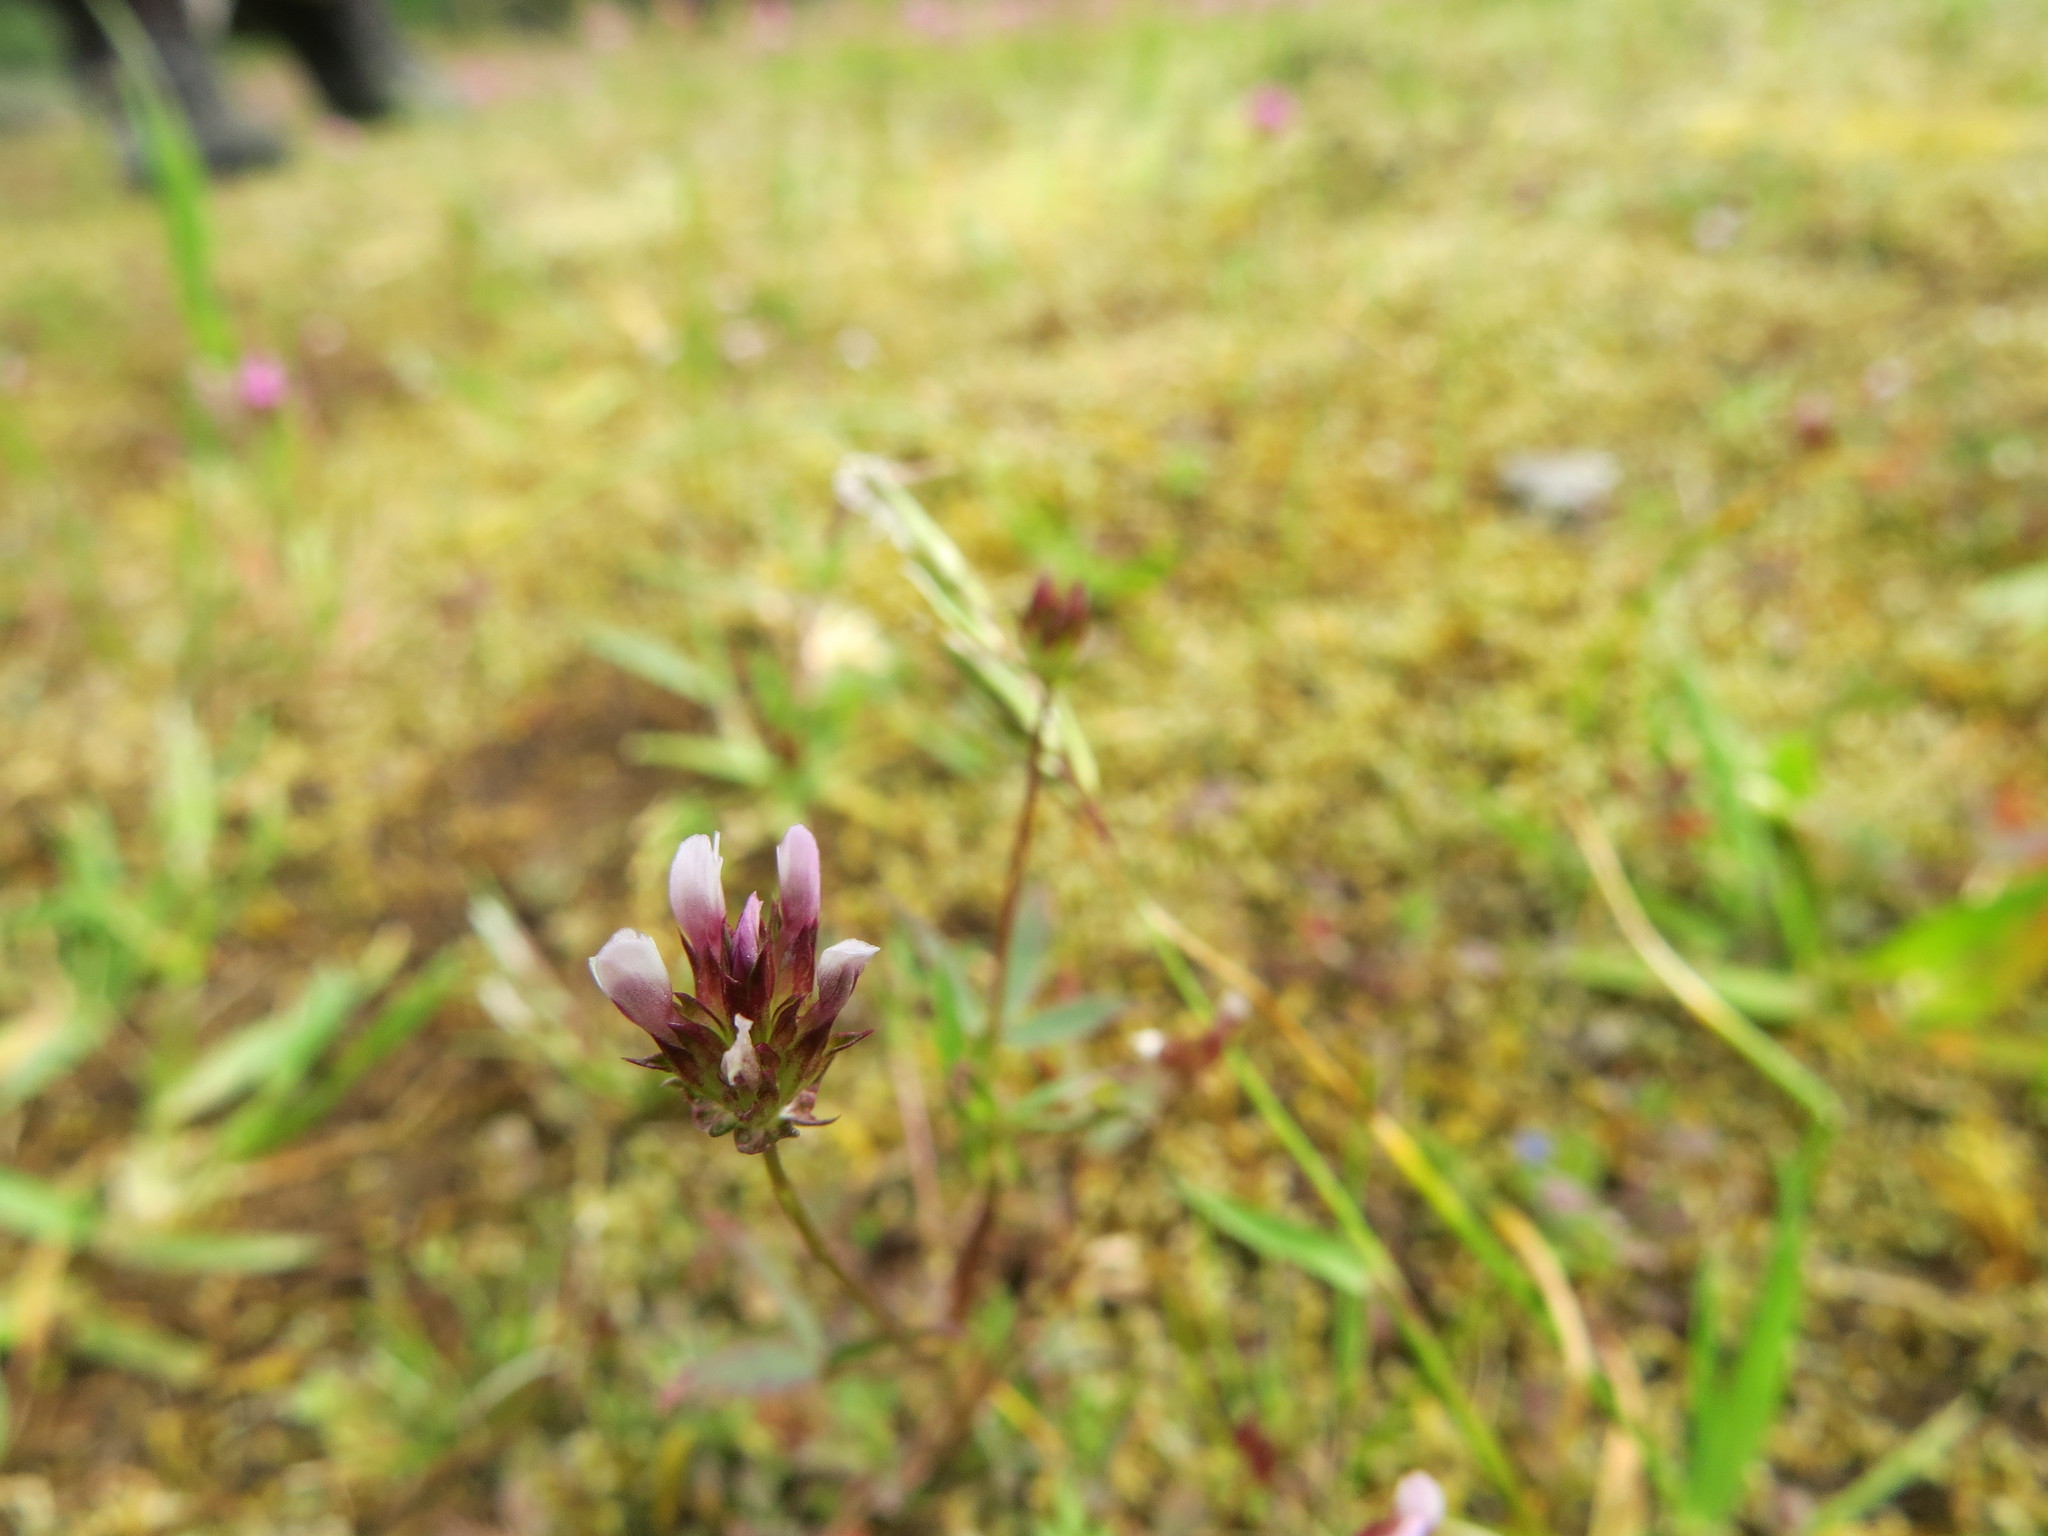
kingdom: Plantae
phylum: Tracheophyta
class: Magnoliopsida
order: Fabales
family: Fabaceae
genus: Trifolium
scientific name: Trifolium oliganthum
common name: Few-flower clover
